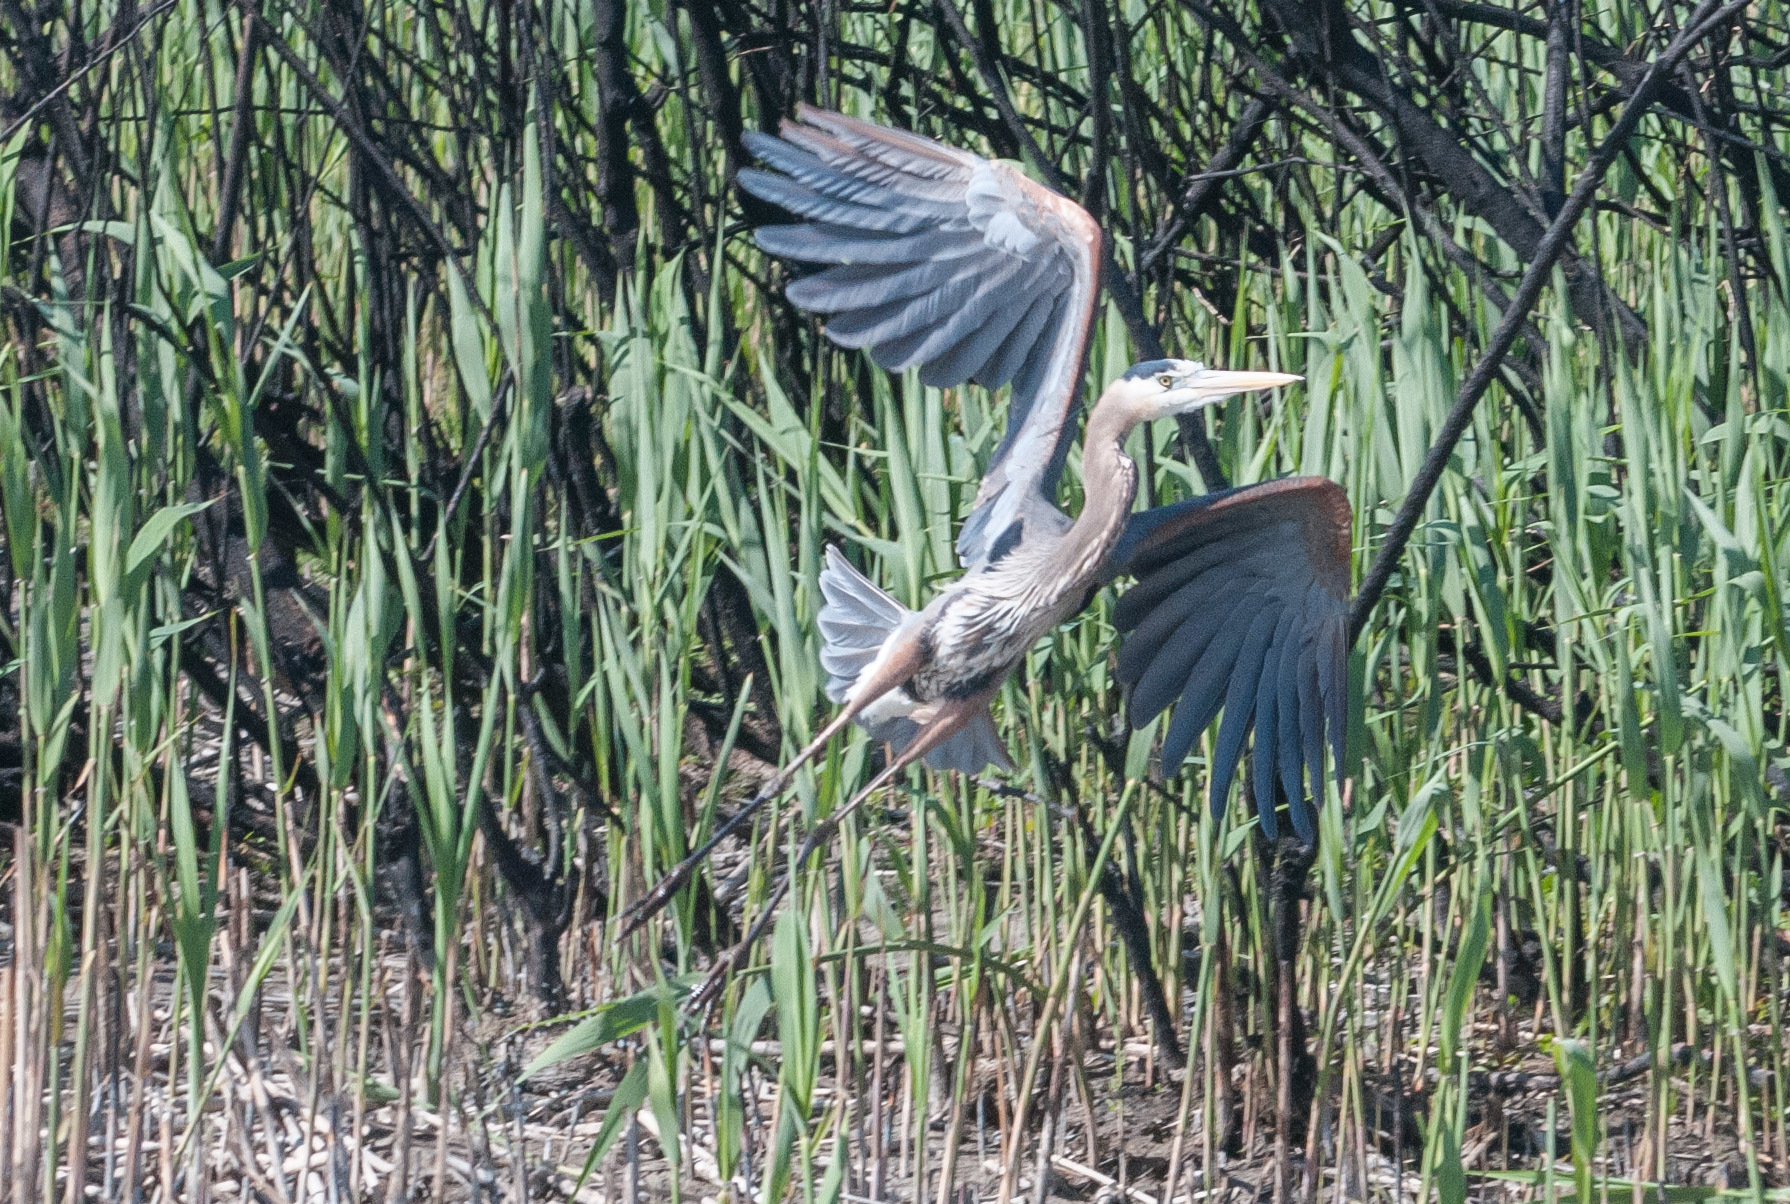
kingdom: Animalia
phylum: Chordata
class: Aves
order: Pelecaniformes
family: Ardeidae
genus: Ardea
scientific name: Ardea herodias
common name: Great blue heron
